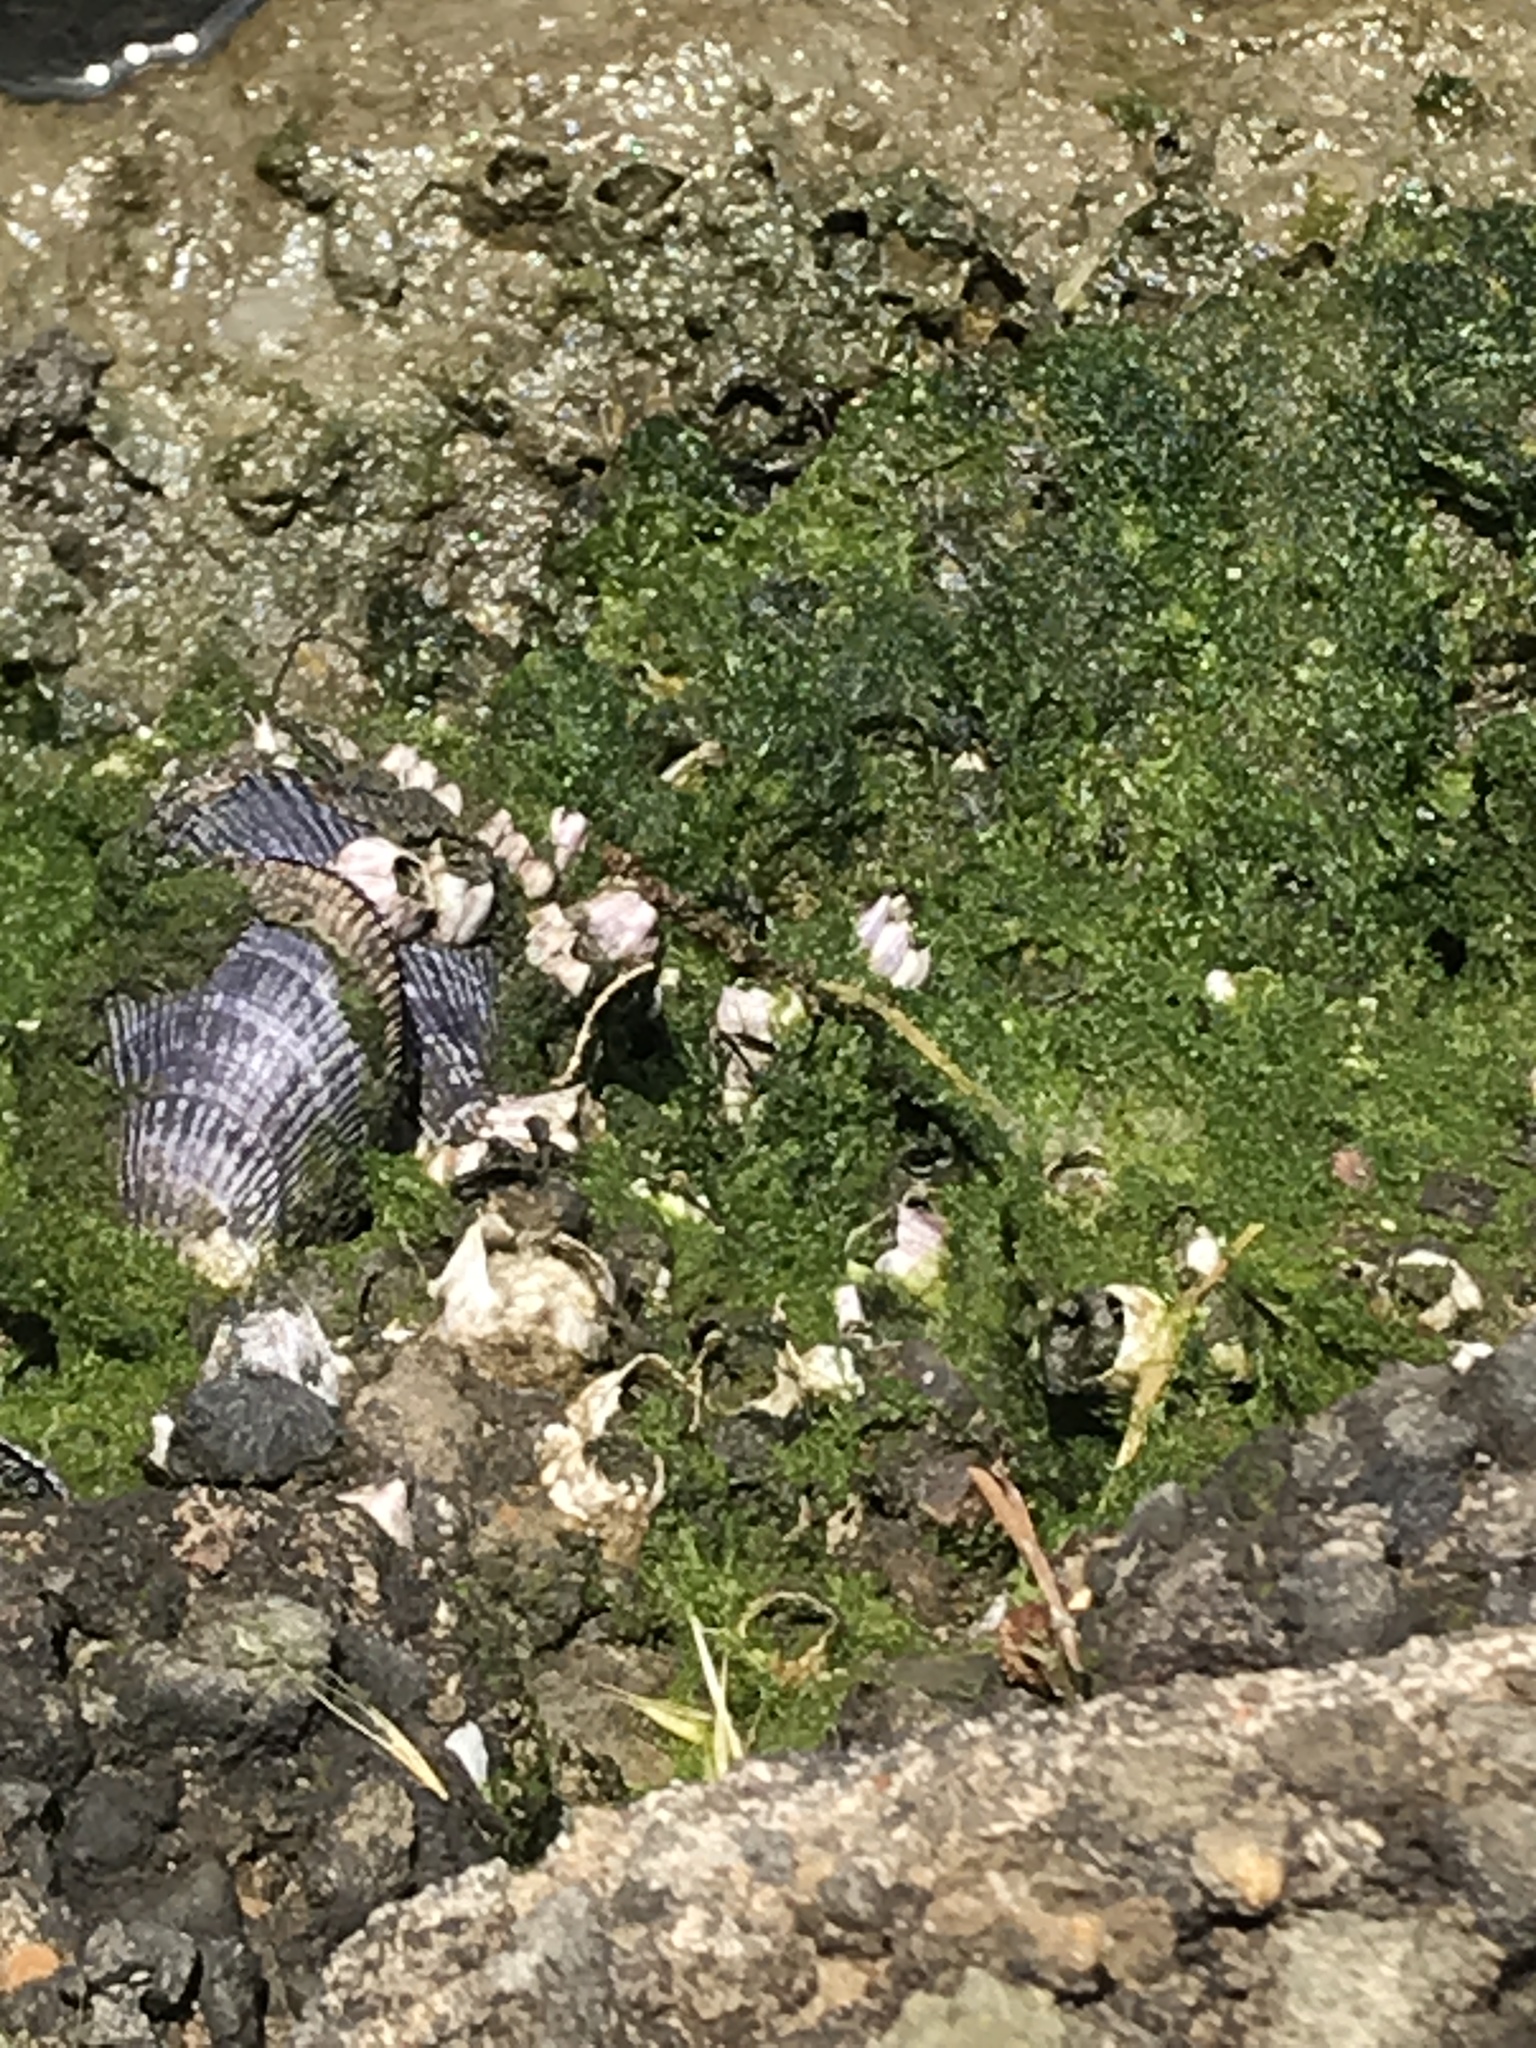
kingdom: Animalia
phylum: Mollusca
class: Bivalvia
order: Mytilida
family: Mytilidae
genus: Geukensia
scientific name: Geukensia demissa
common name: Ribbed mussel
